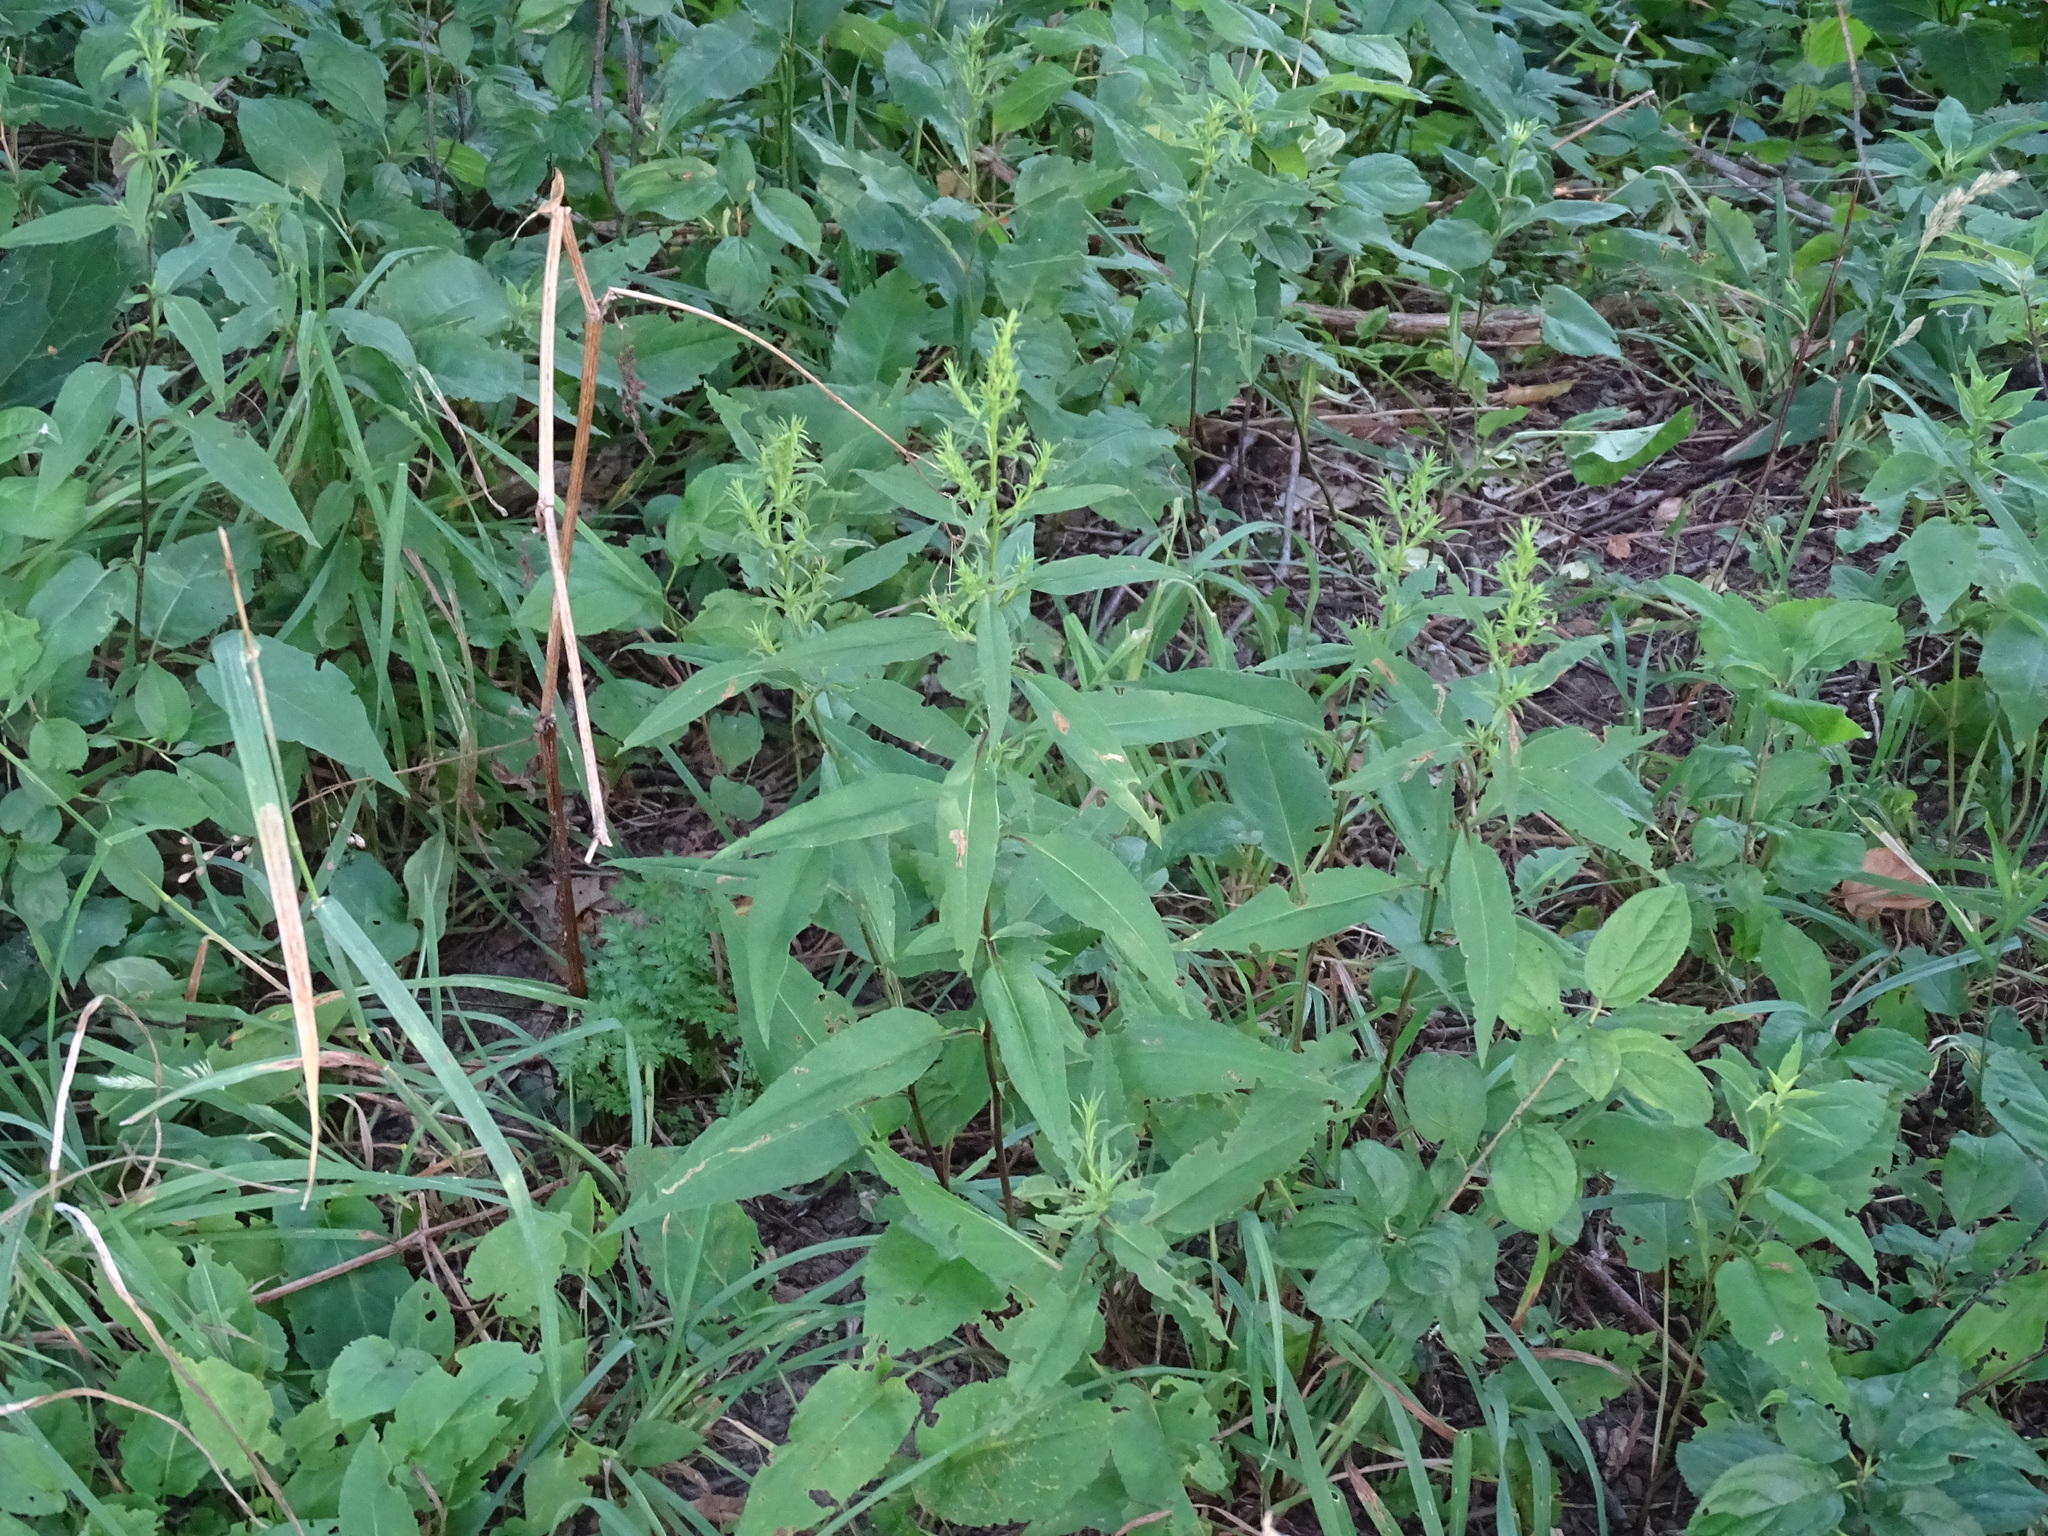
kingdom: Plantae
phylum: Tracheophyta
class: Magnoliopsida
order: Asterales
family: Asteraceae
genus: Symphyotrichum
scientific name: Symphyotrichum urophyllum
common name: Arrow-leaved aster
